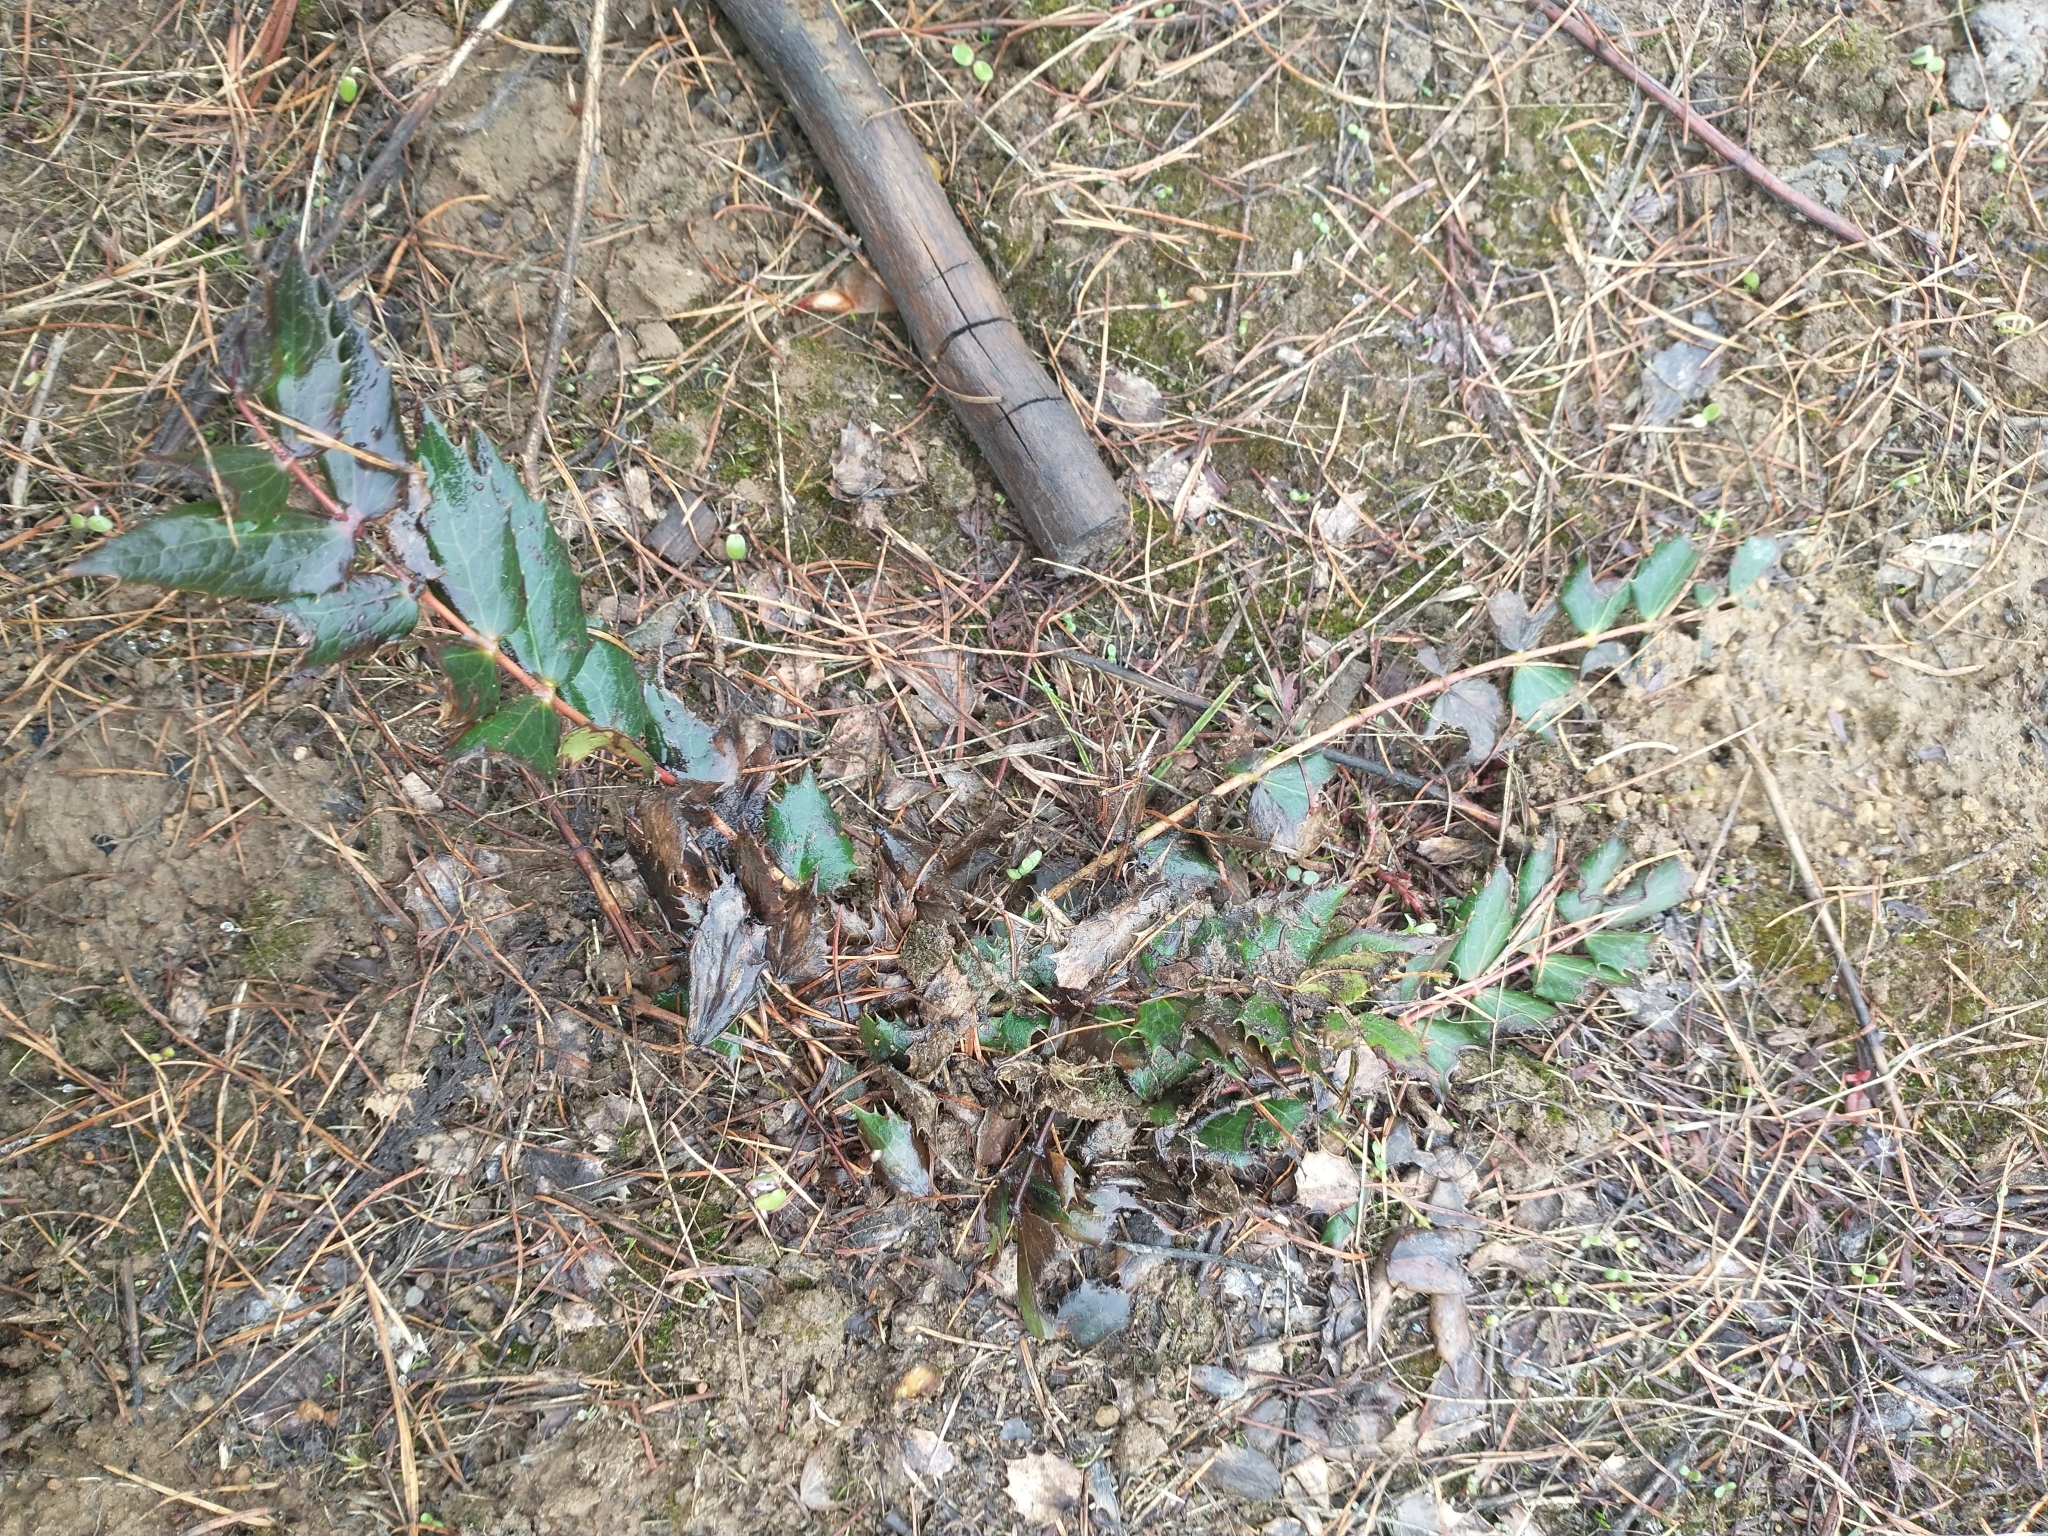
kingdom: Plantae
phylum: Tracheophyta
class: Magnoliopsida
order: Ranunculales
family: Berberidaceae
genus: Mahonia
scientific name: Mahonia nervosa
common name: Cascade oregon-grape
